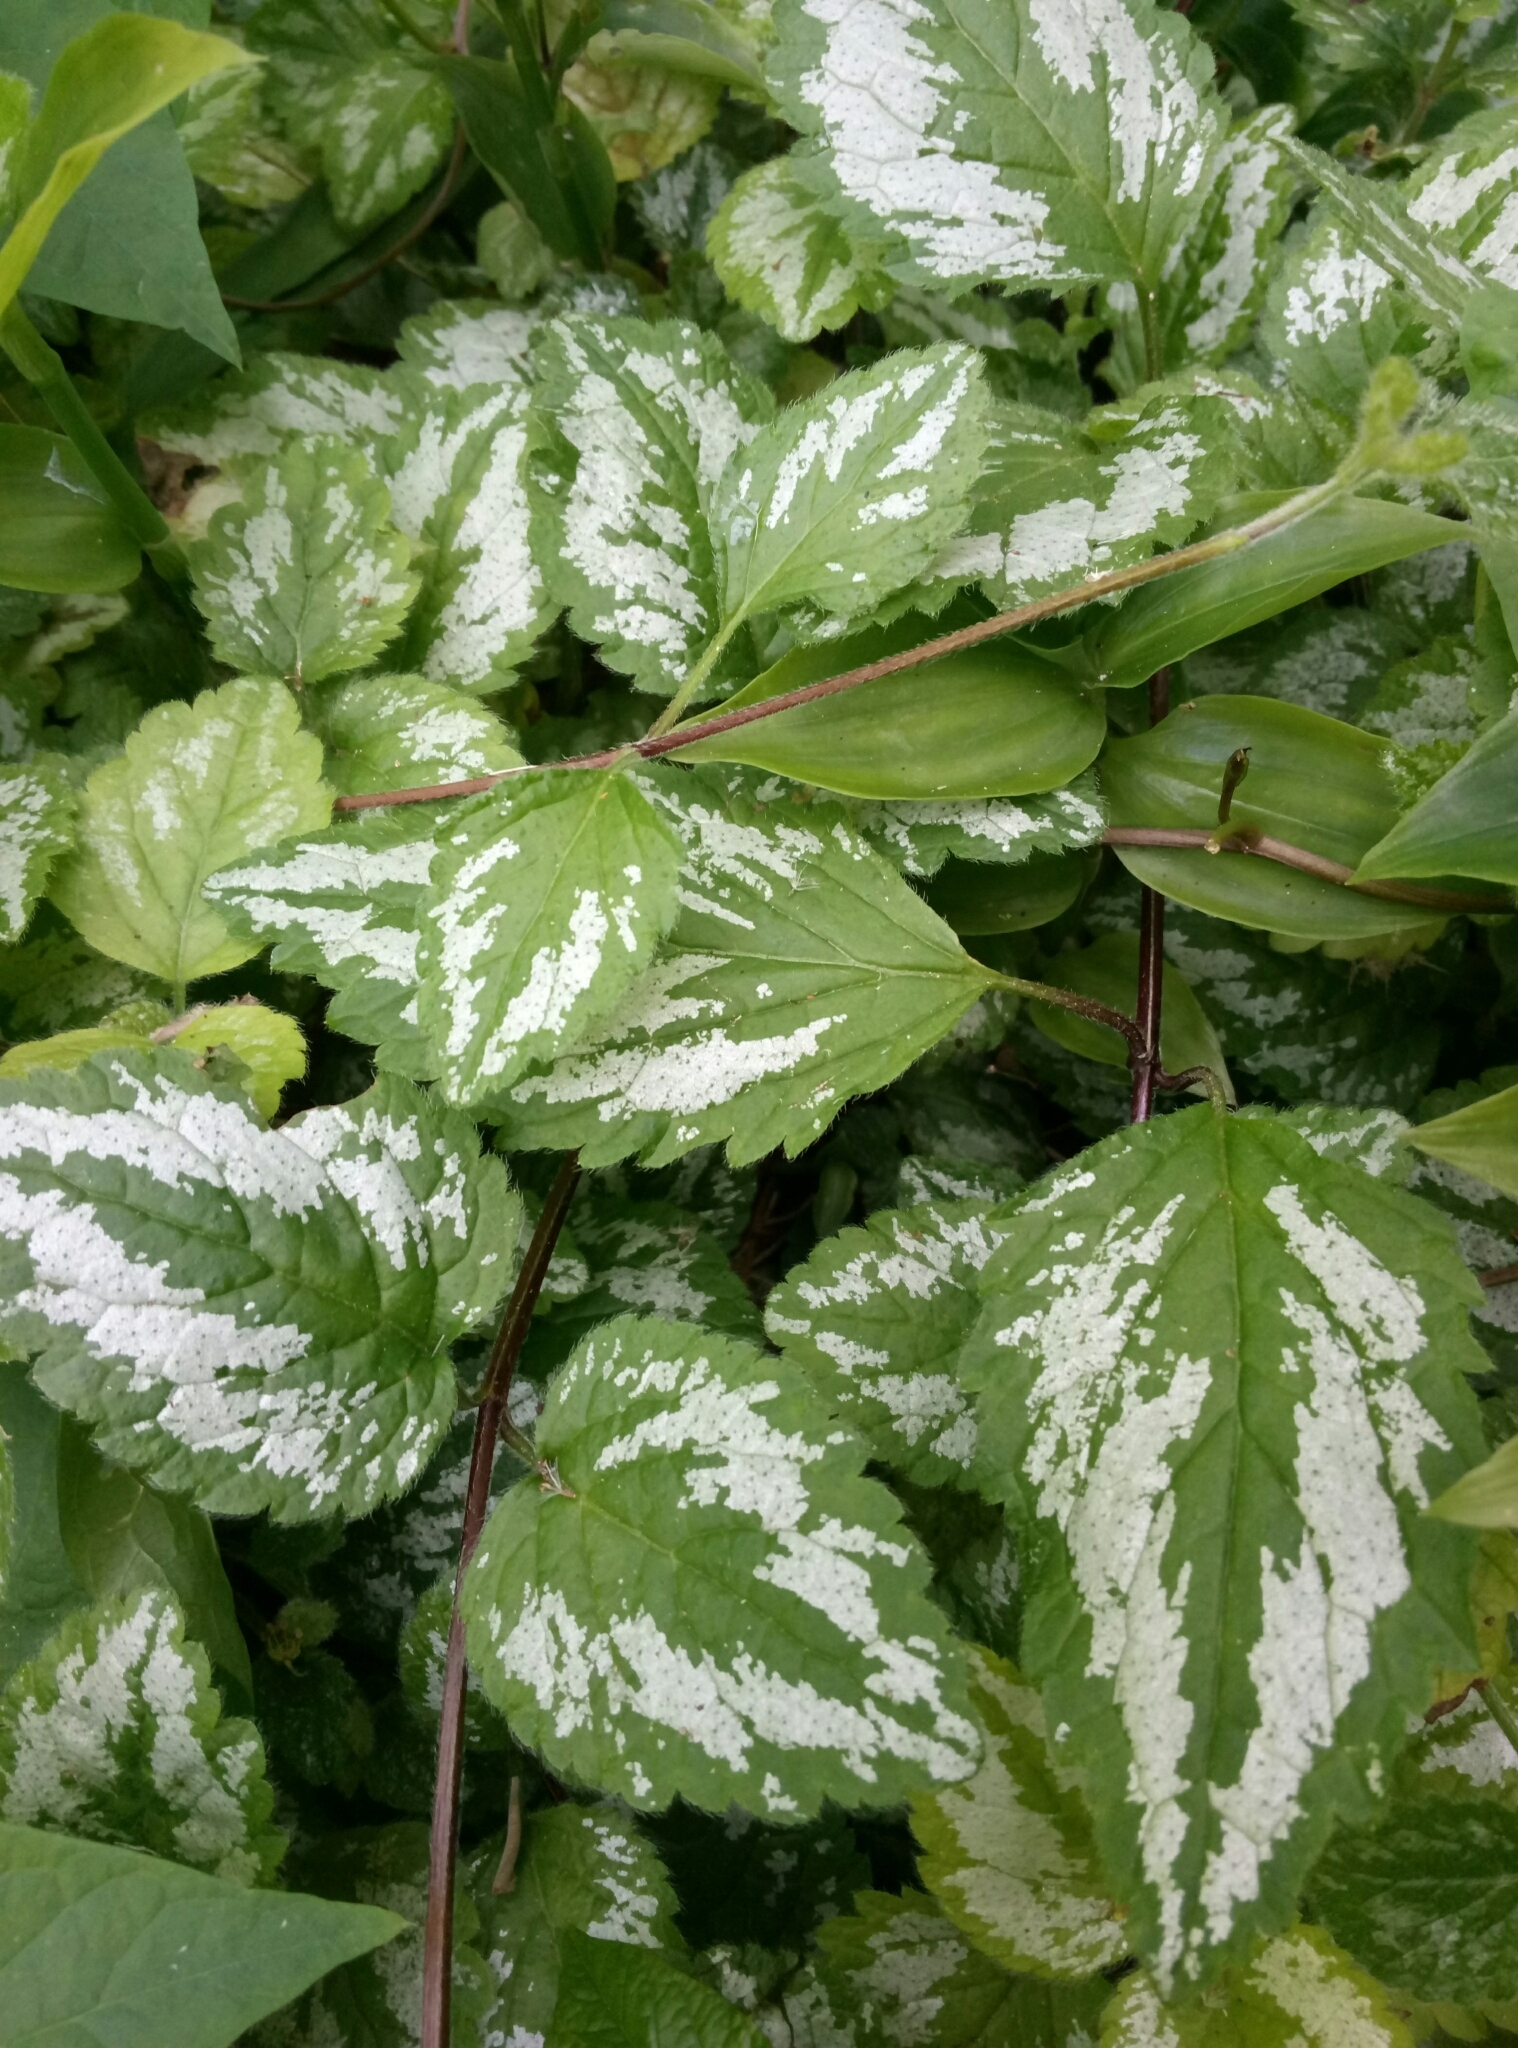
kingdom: Plantae
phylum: Tracheophyta
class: Magnoliopsida
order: Lamiales
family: Lamiaceae
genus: Lamium
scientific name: Lamium galeobdolon
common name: Yellow archangel
